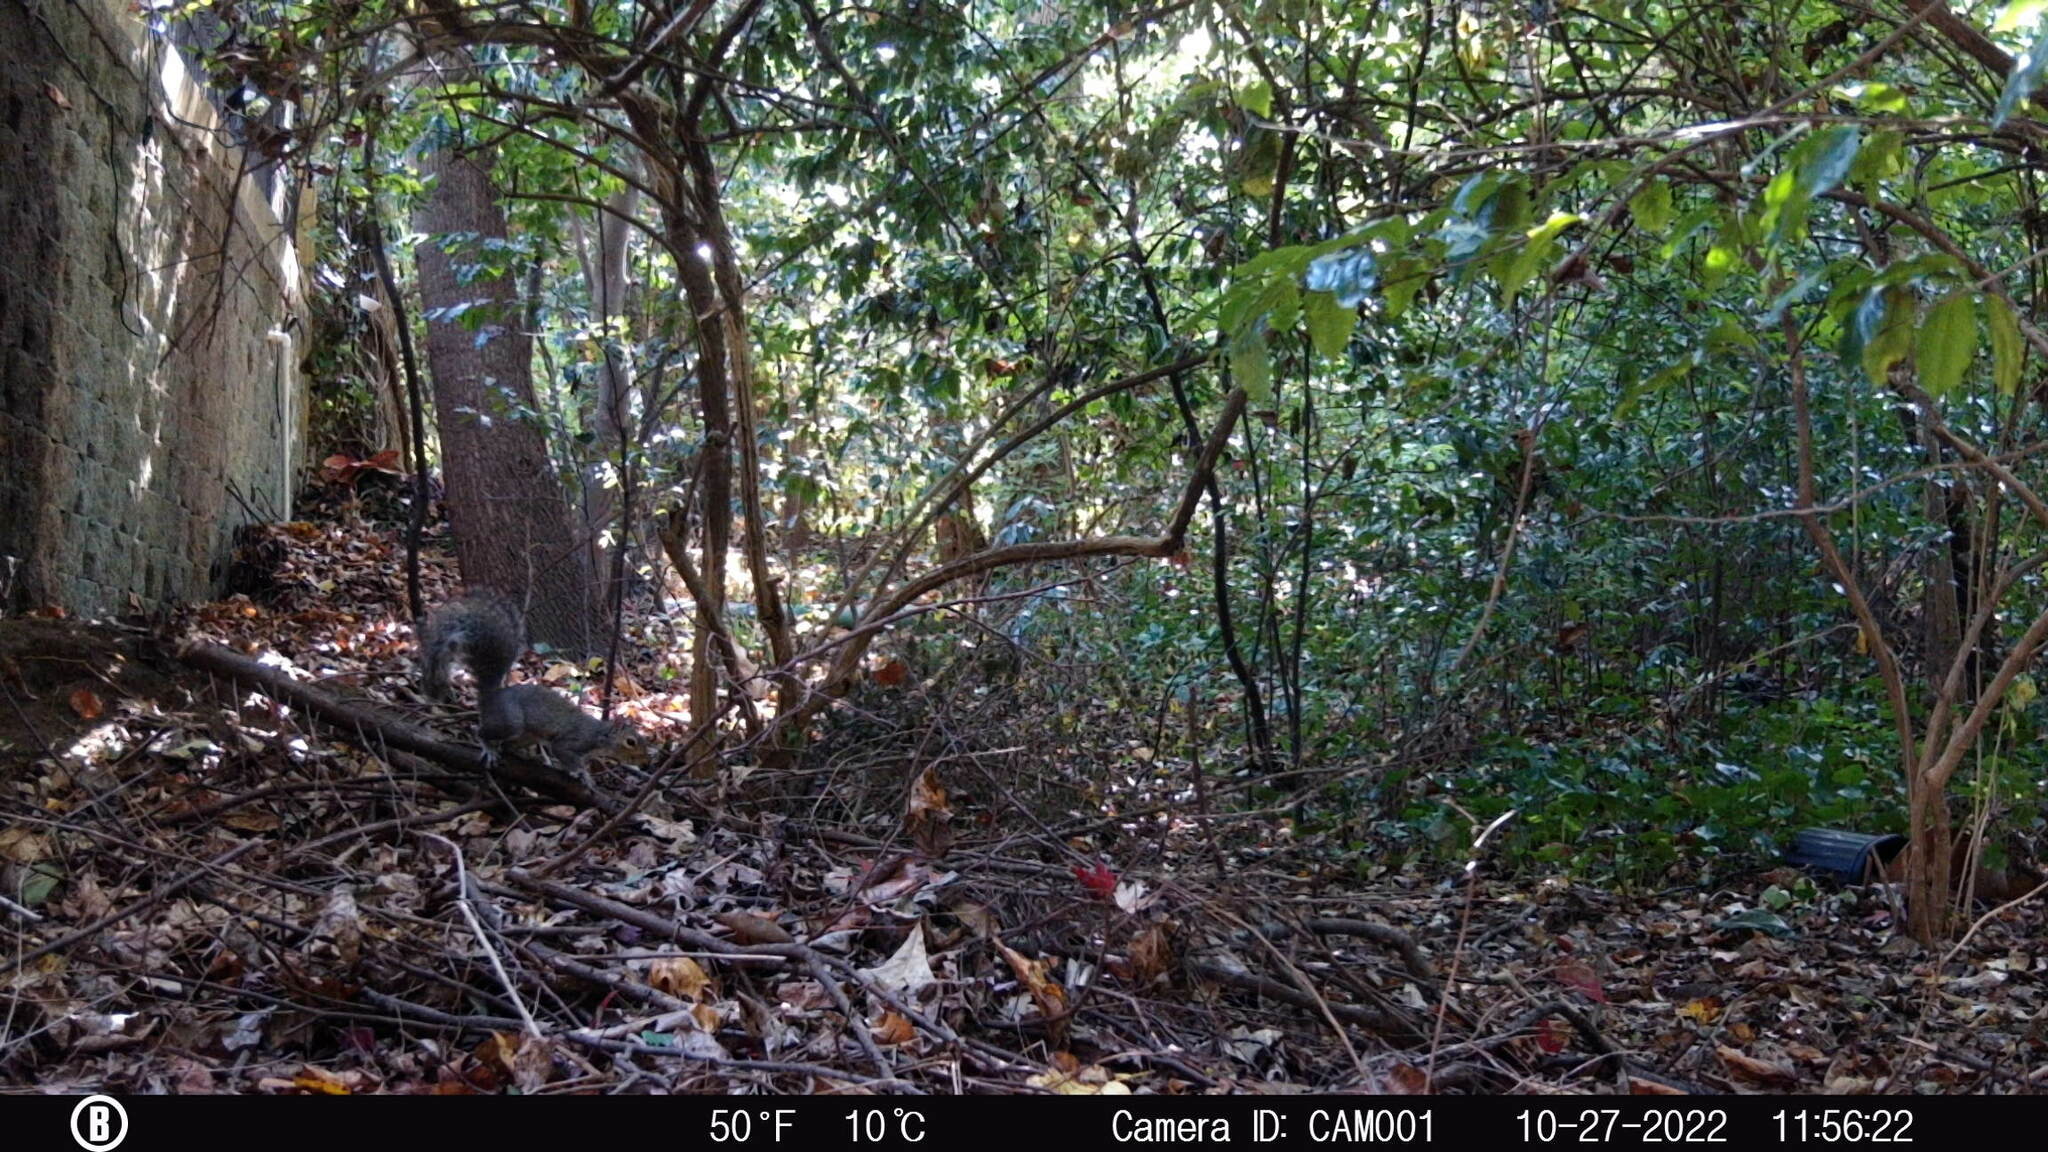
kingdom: Animalia
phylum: Chordata
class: Mammalia
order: Rodentia
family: Sciuridae
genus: Sciurus
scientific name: Sciurus carolinensis
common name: Eastern gray squirrel
